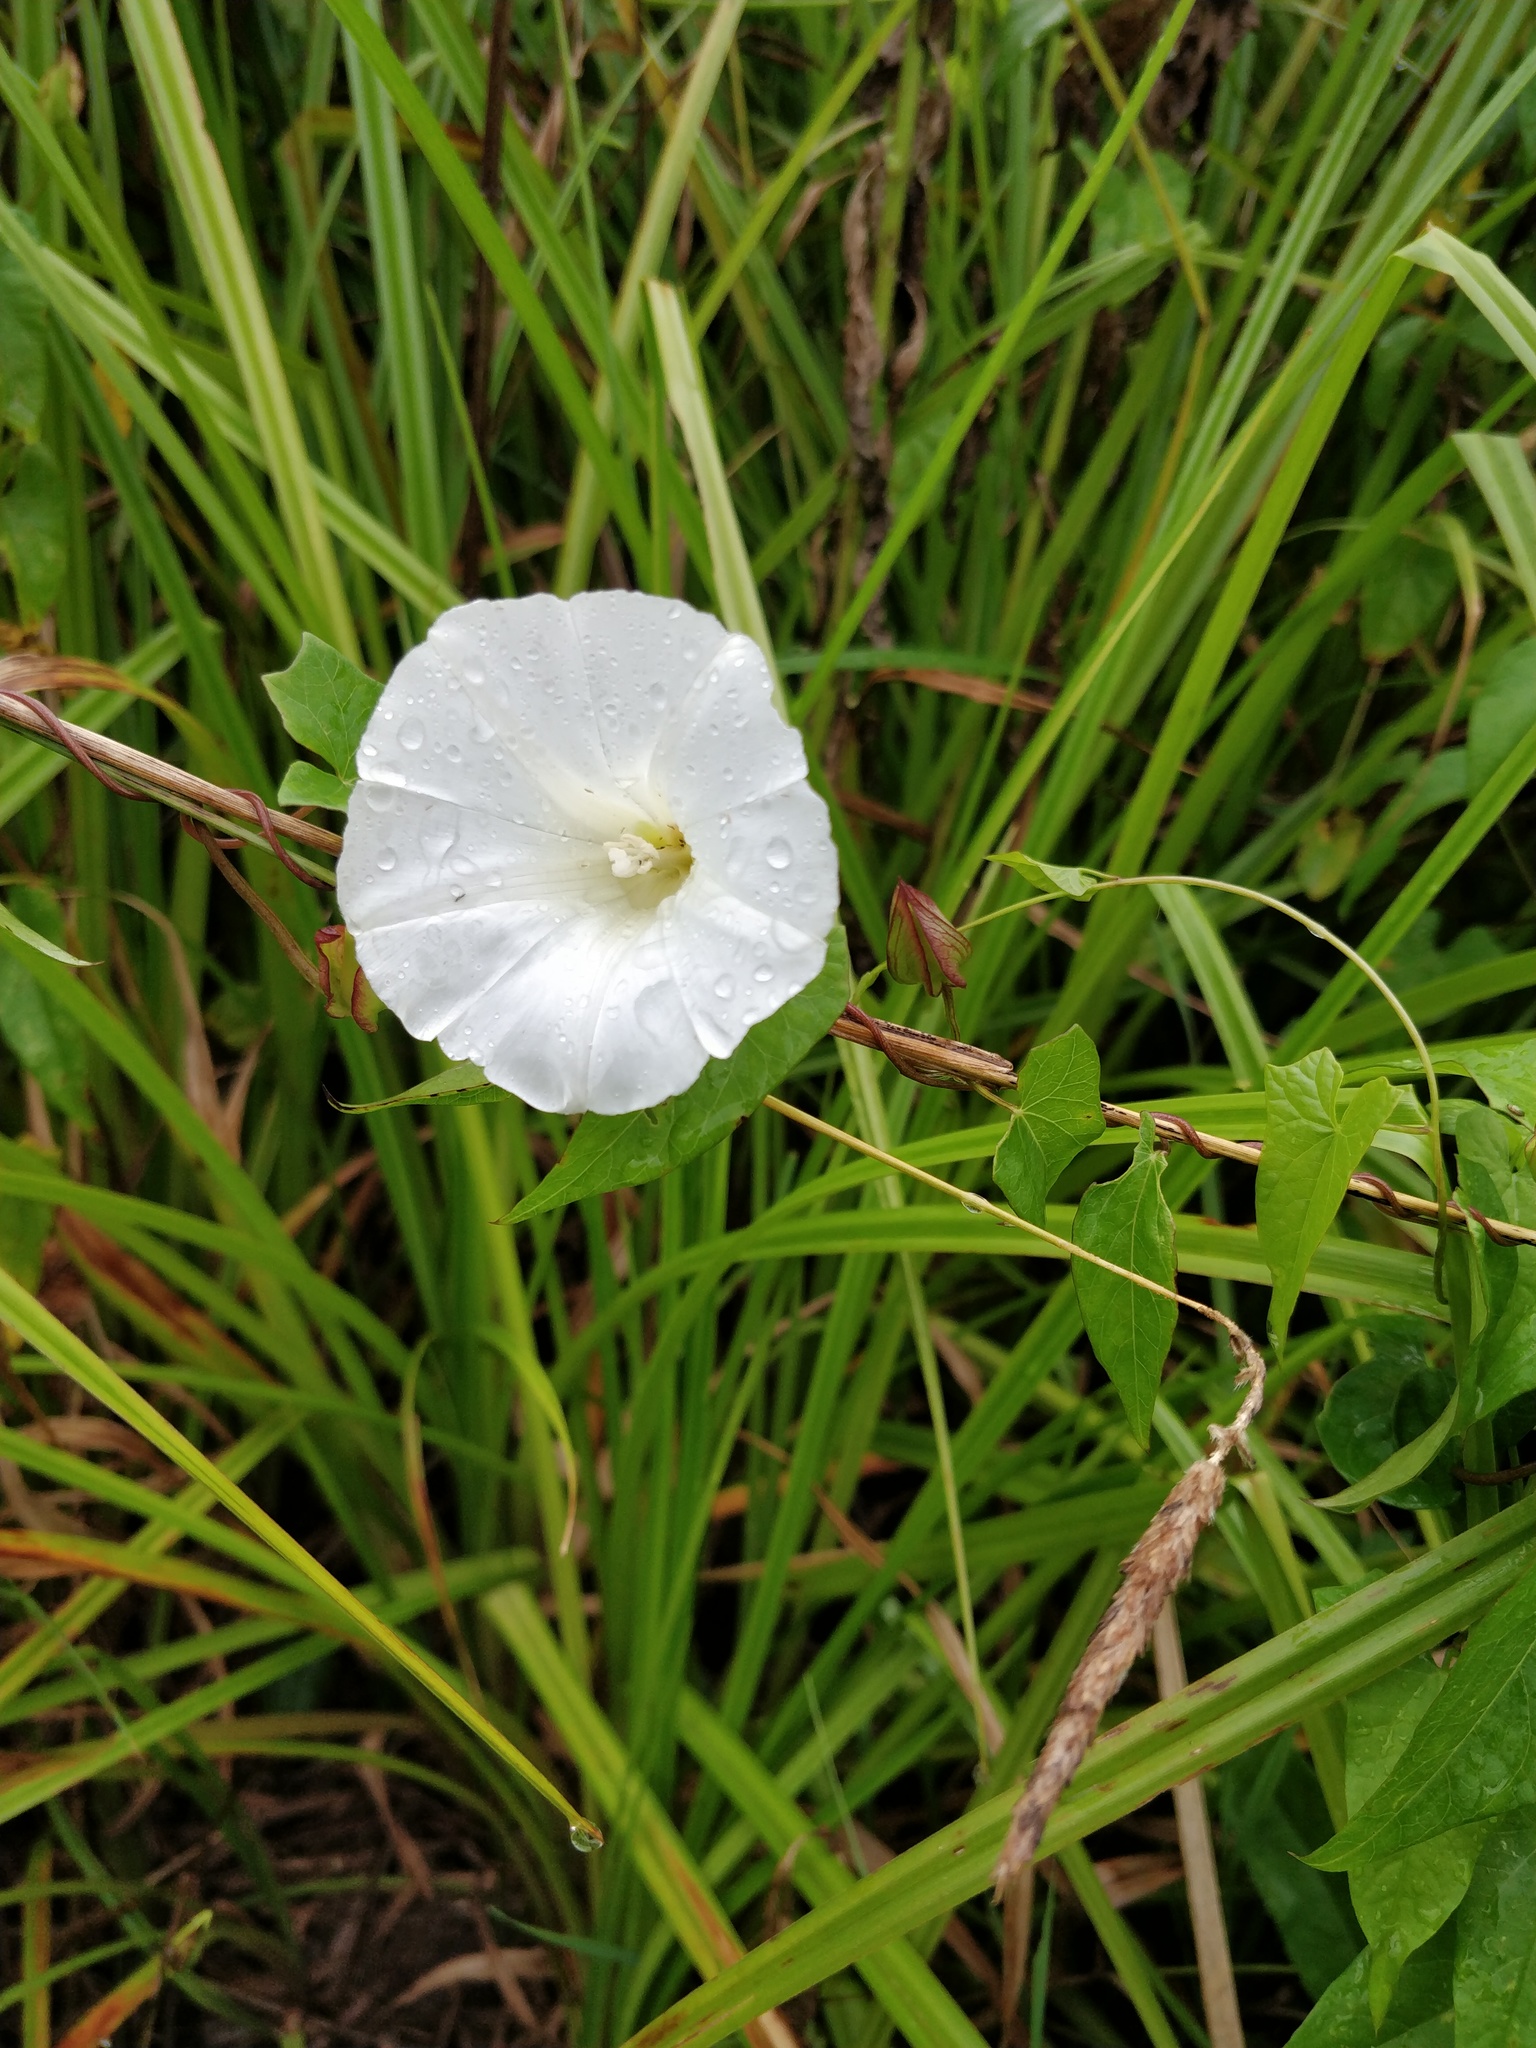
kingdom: Plantae
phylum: Tracheophyta
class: Magnoliopsida
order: Solanales
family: Convolvulaceae
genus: Calystegia
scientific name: Calystegia sepium
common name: Hedge bindweed
